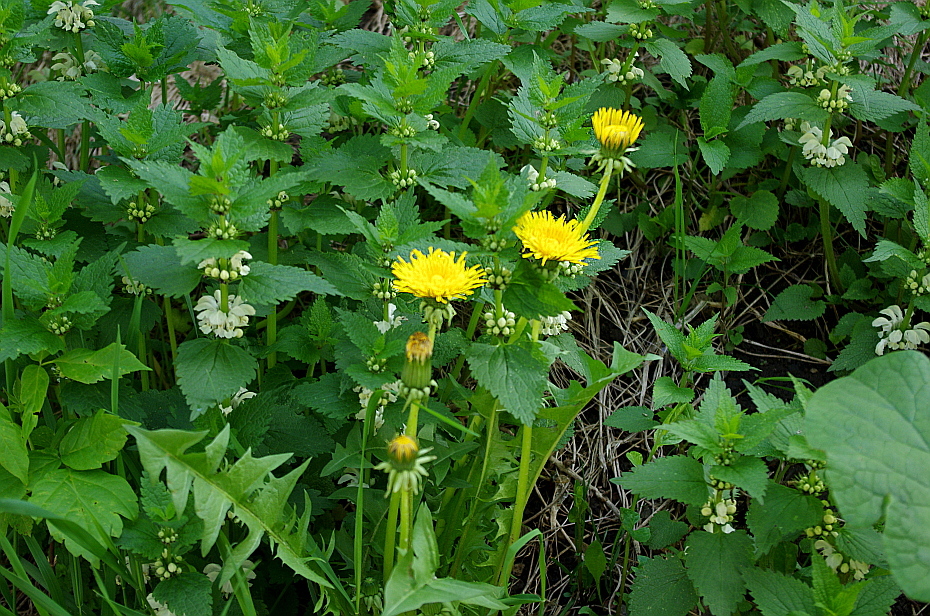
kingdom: Plantae
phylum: Tracheophyta
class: Magnoliopsida
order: Asterales
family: Asteraceae
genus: Taraxacum
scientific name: Taraxacum officinale
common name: Common dandelion
